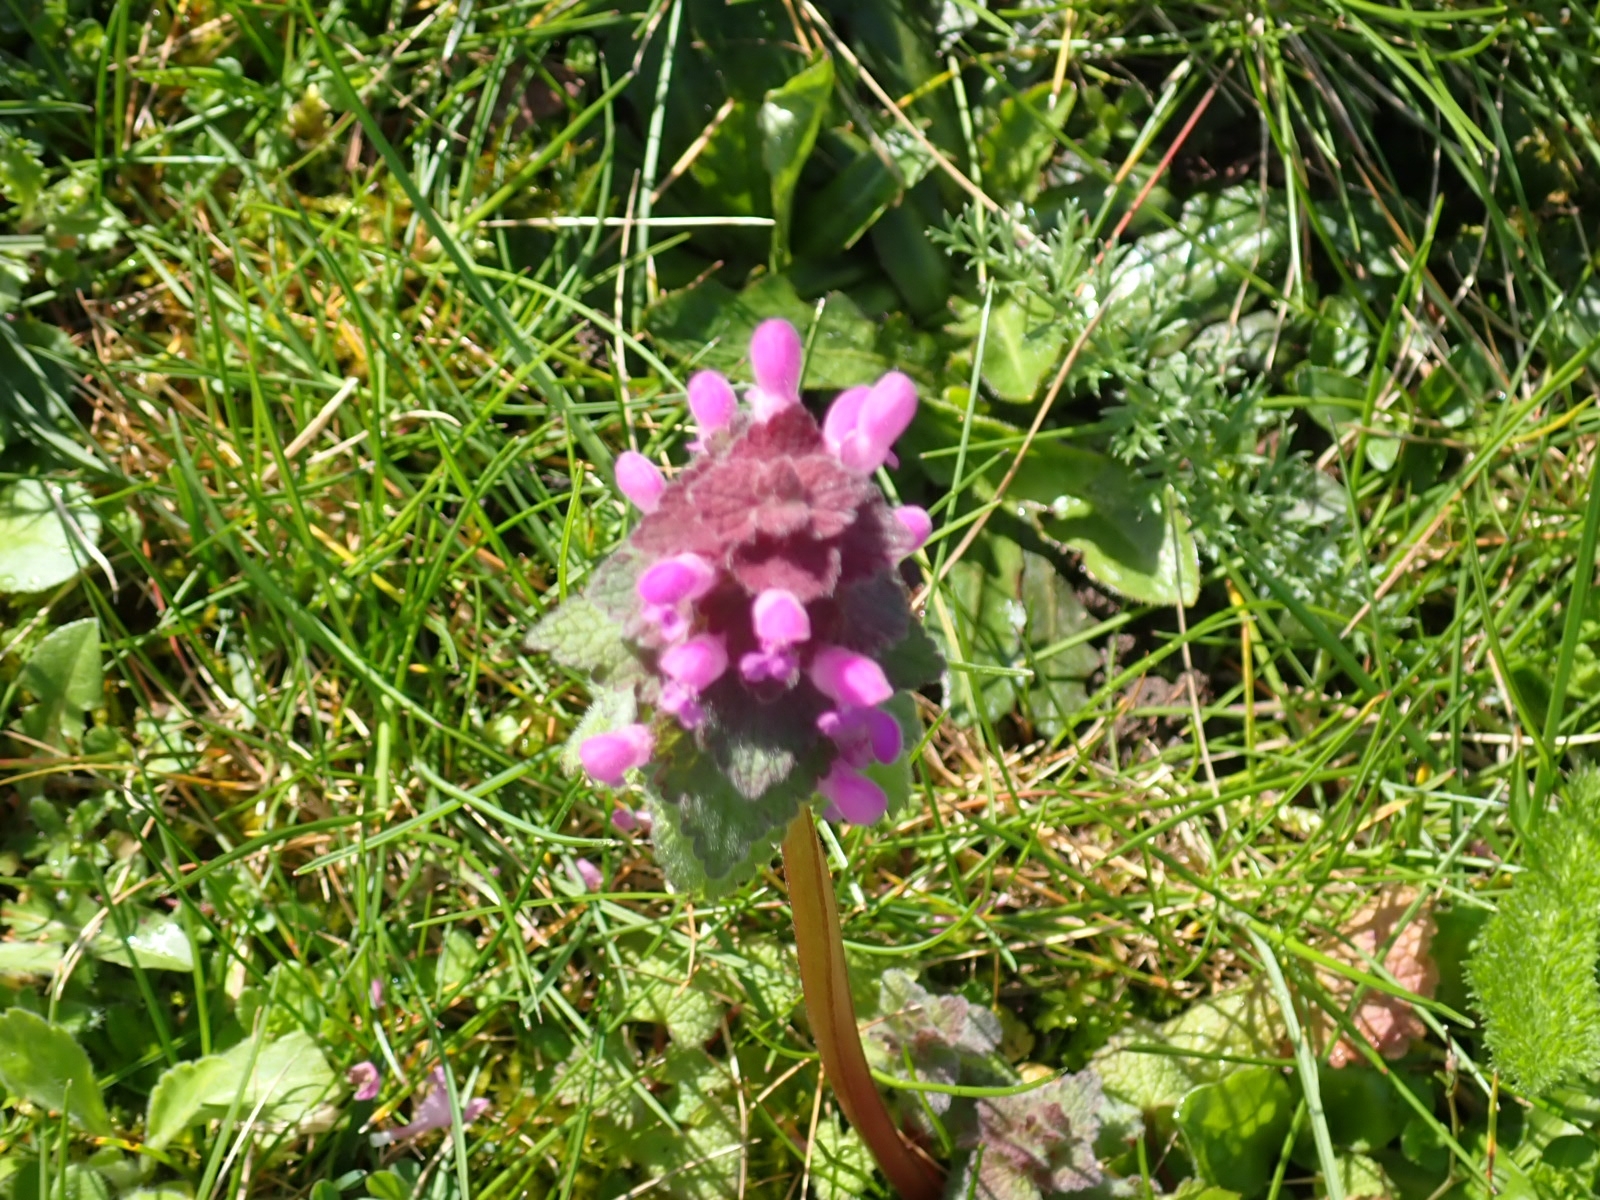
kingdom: Plantae
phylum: Tracheophyta
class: Magnoliopsida
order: Lamiales
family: Lamiaceae
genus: Lamium
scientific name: Lamium purpureum
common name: Red dead-nettle
